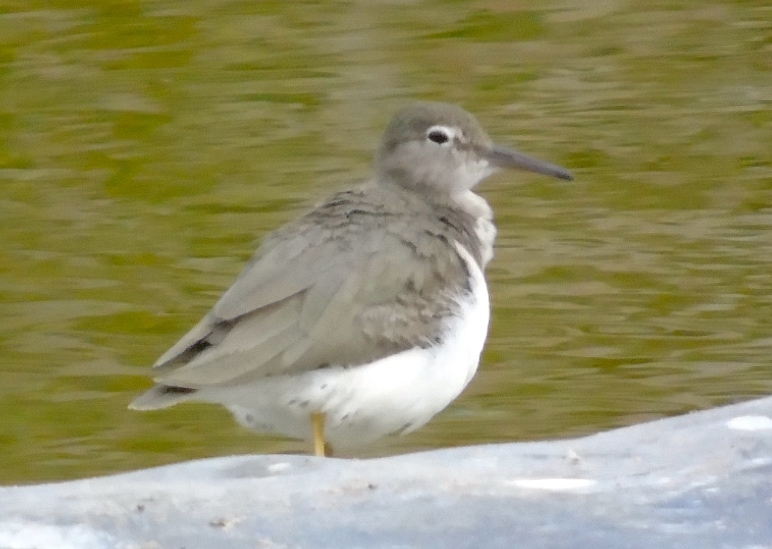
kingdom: Animalia
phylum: Chordata
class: Aves
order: Charadriiformes
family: Scolopacidae
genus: Actitis
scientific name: Actitis macularius
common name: Spotted sandpiper
